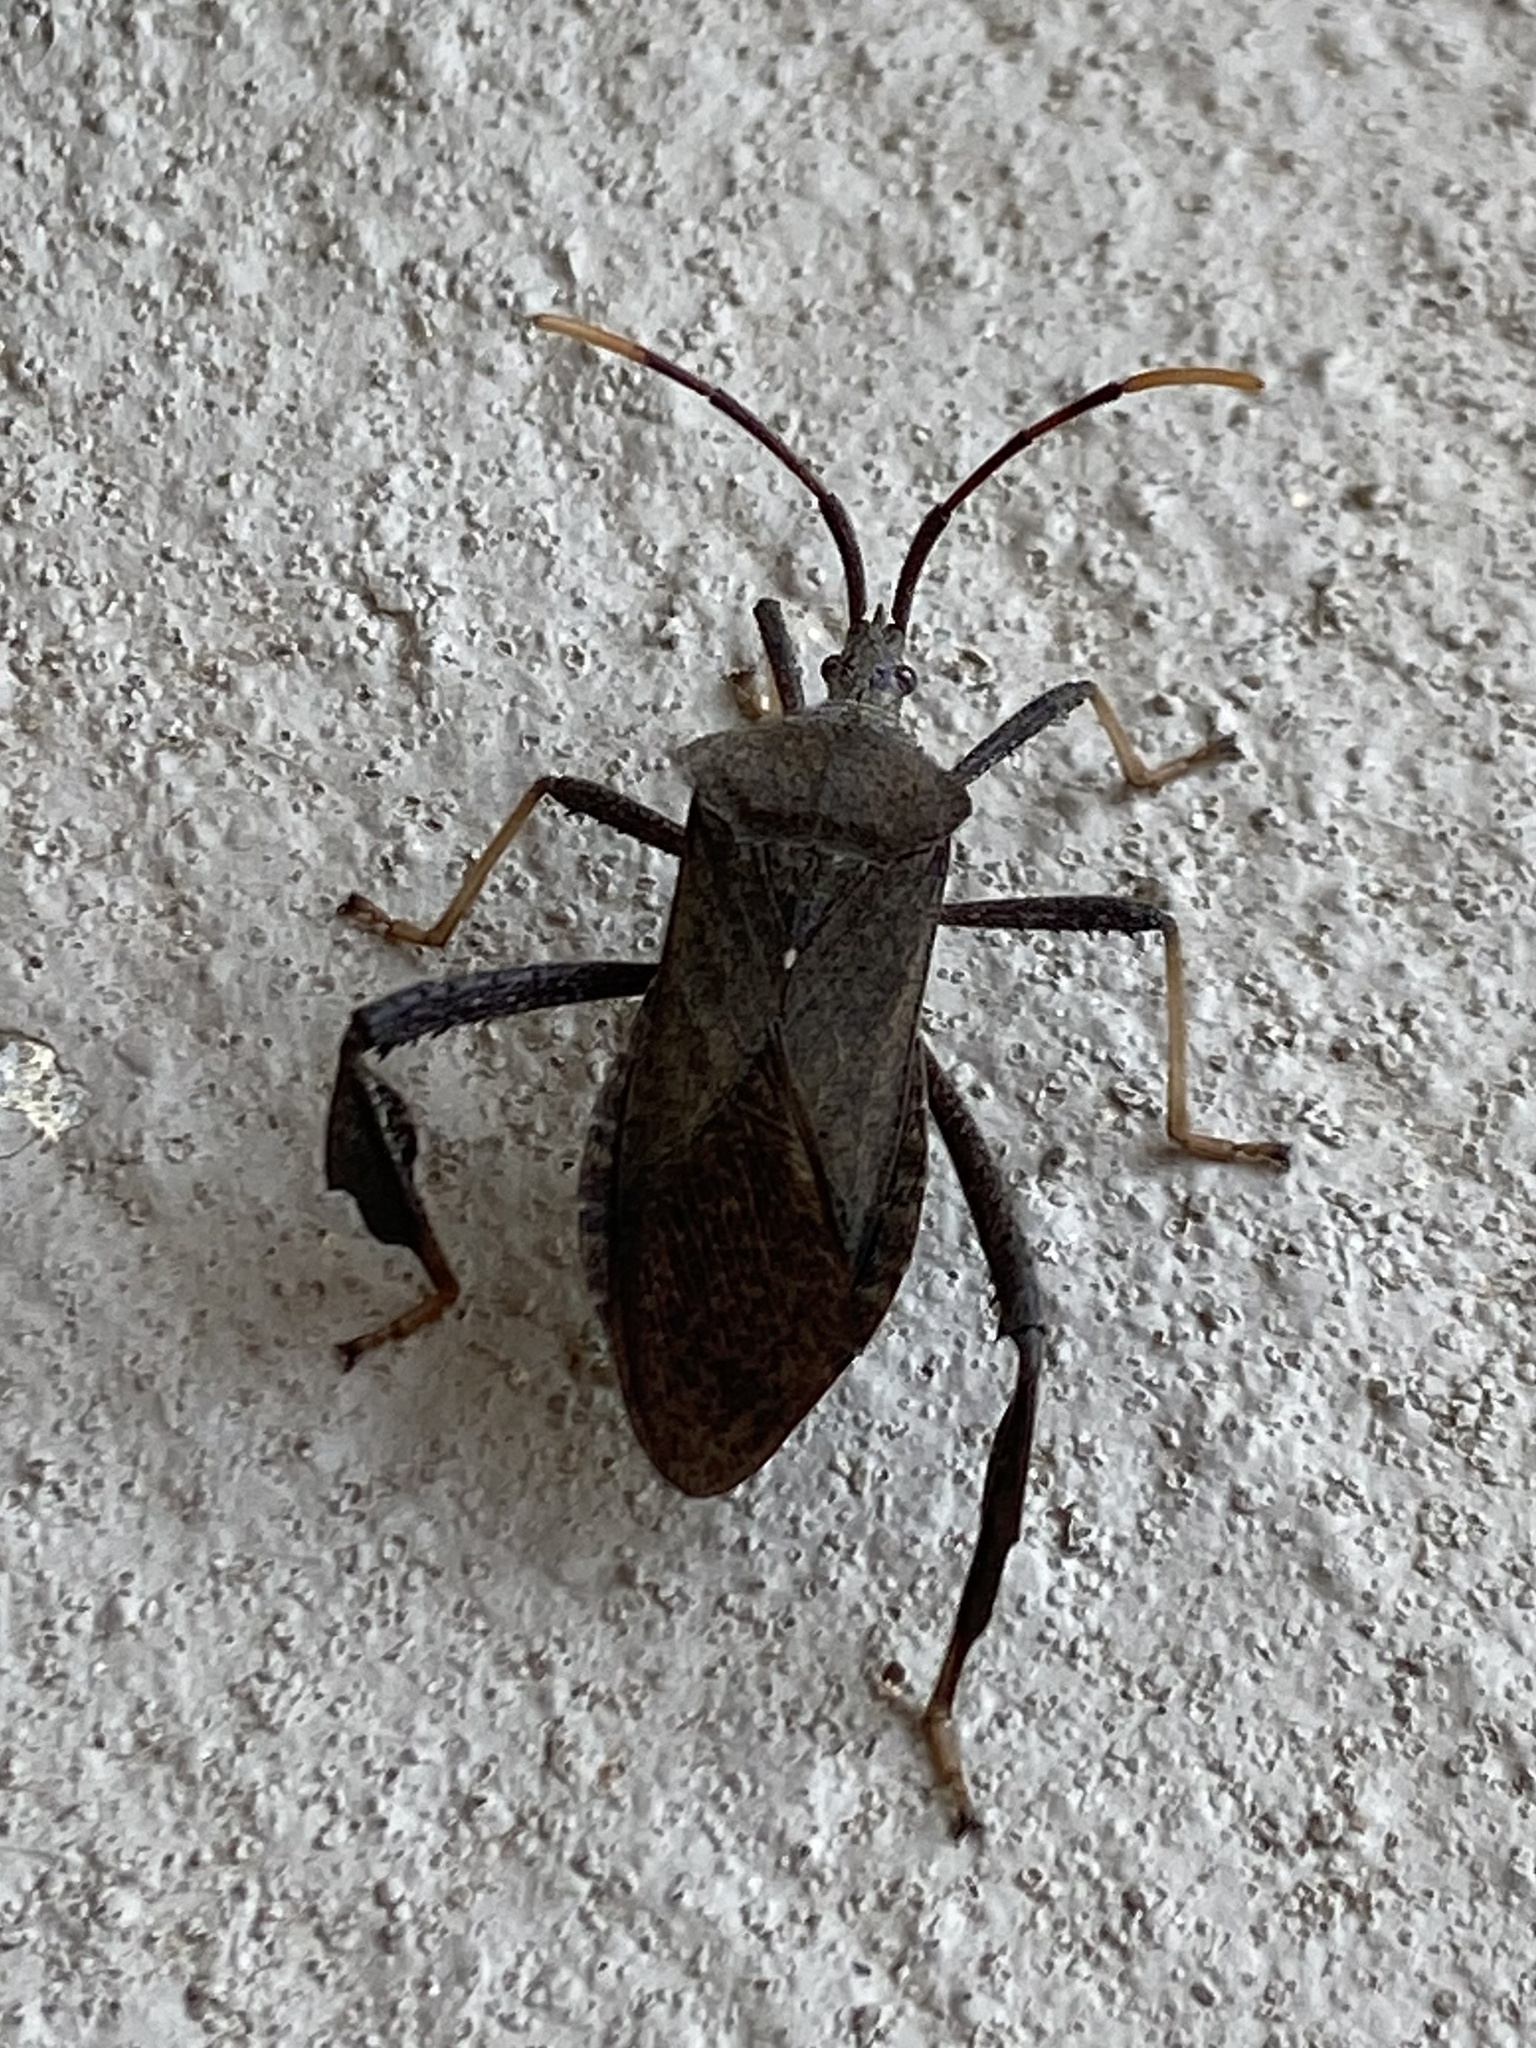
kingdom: Animalia
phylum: Arthropoda
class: Insecta
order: Hemiptera
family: Coreidae
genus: Acanthocephala
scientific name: Acanthocephala terminalis
